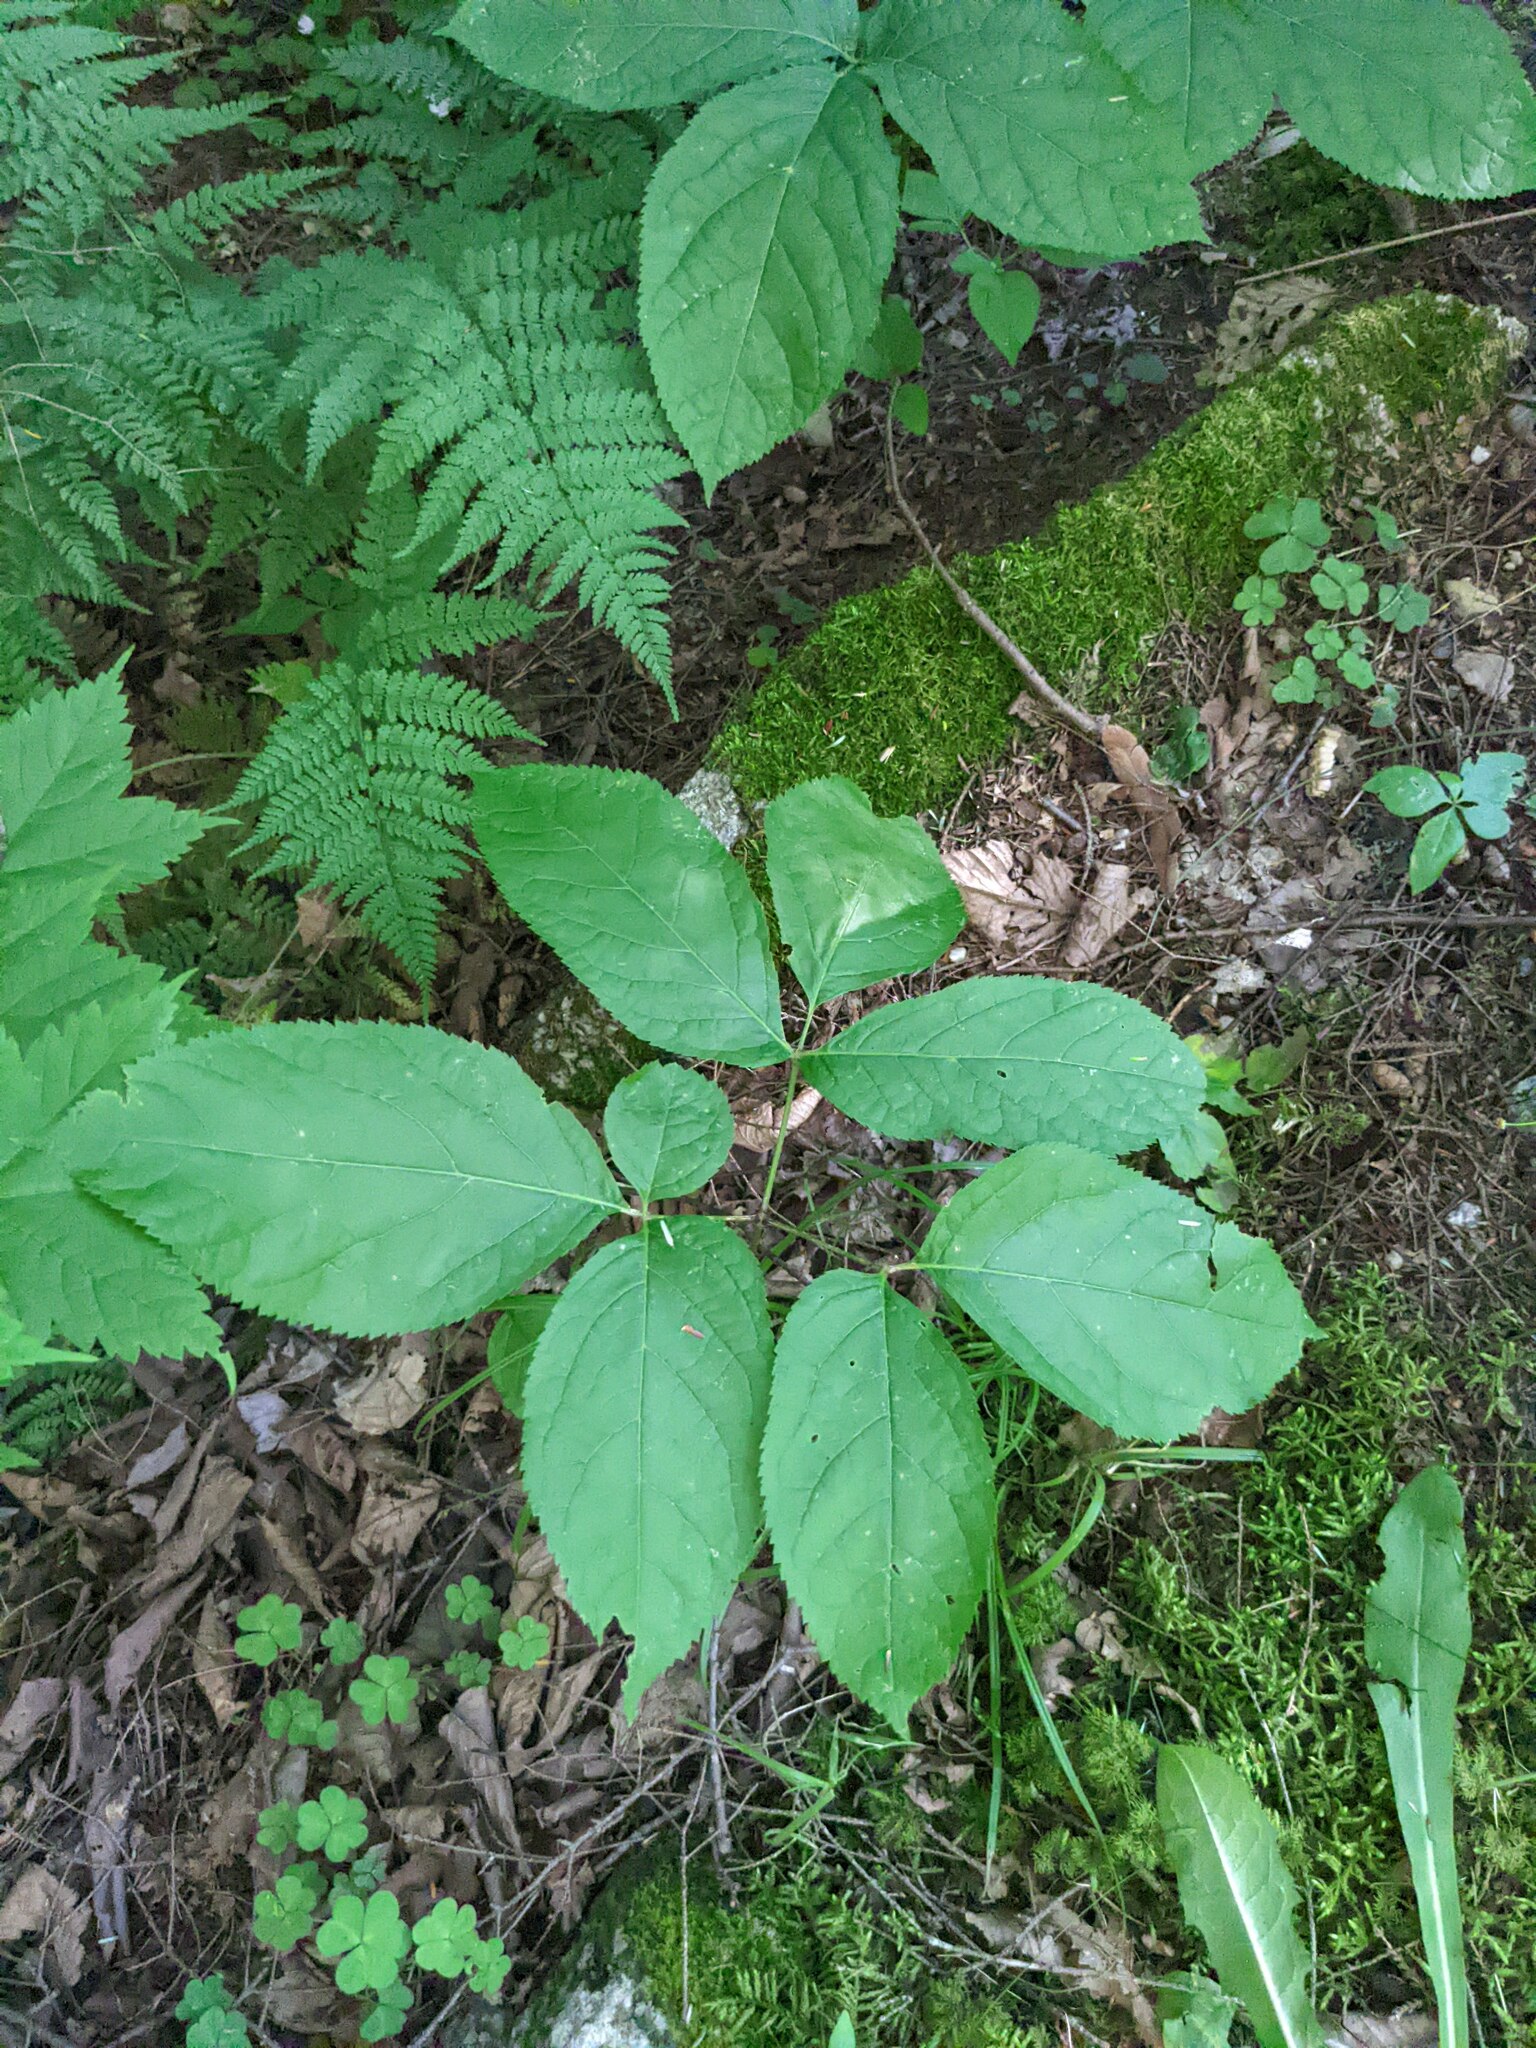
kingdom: Plantae
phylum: Tracheophyta
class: Magnoliopsida
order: Apiales
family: Araliaceae
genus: Aralia
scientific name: Aralia nudicaulis
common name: Wild sarsaparilla
